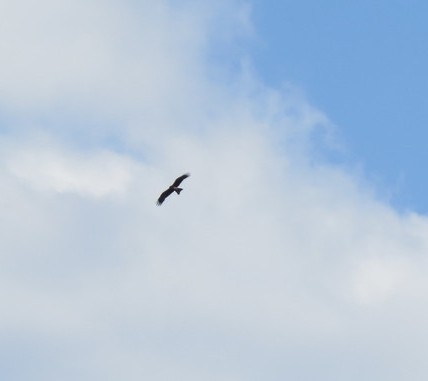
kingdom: Animalia
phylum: Chordata
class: Aves
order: Accipitriformes
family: Accipitridae
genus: Milvus
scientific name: Milvus migrans
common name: Black kite
